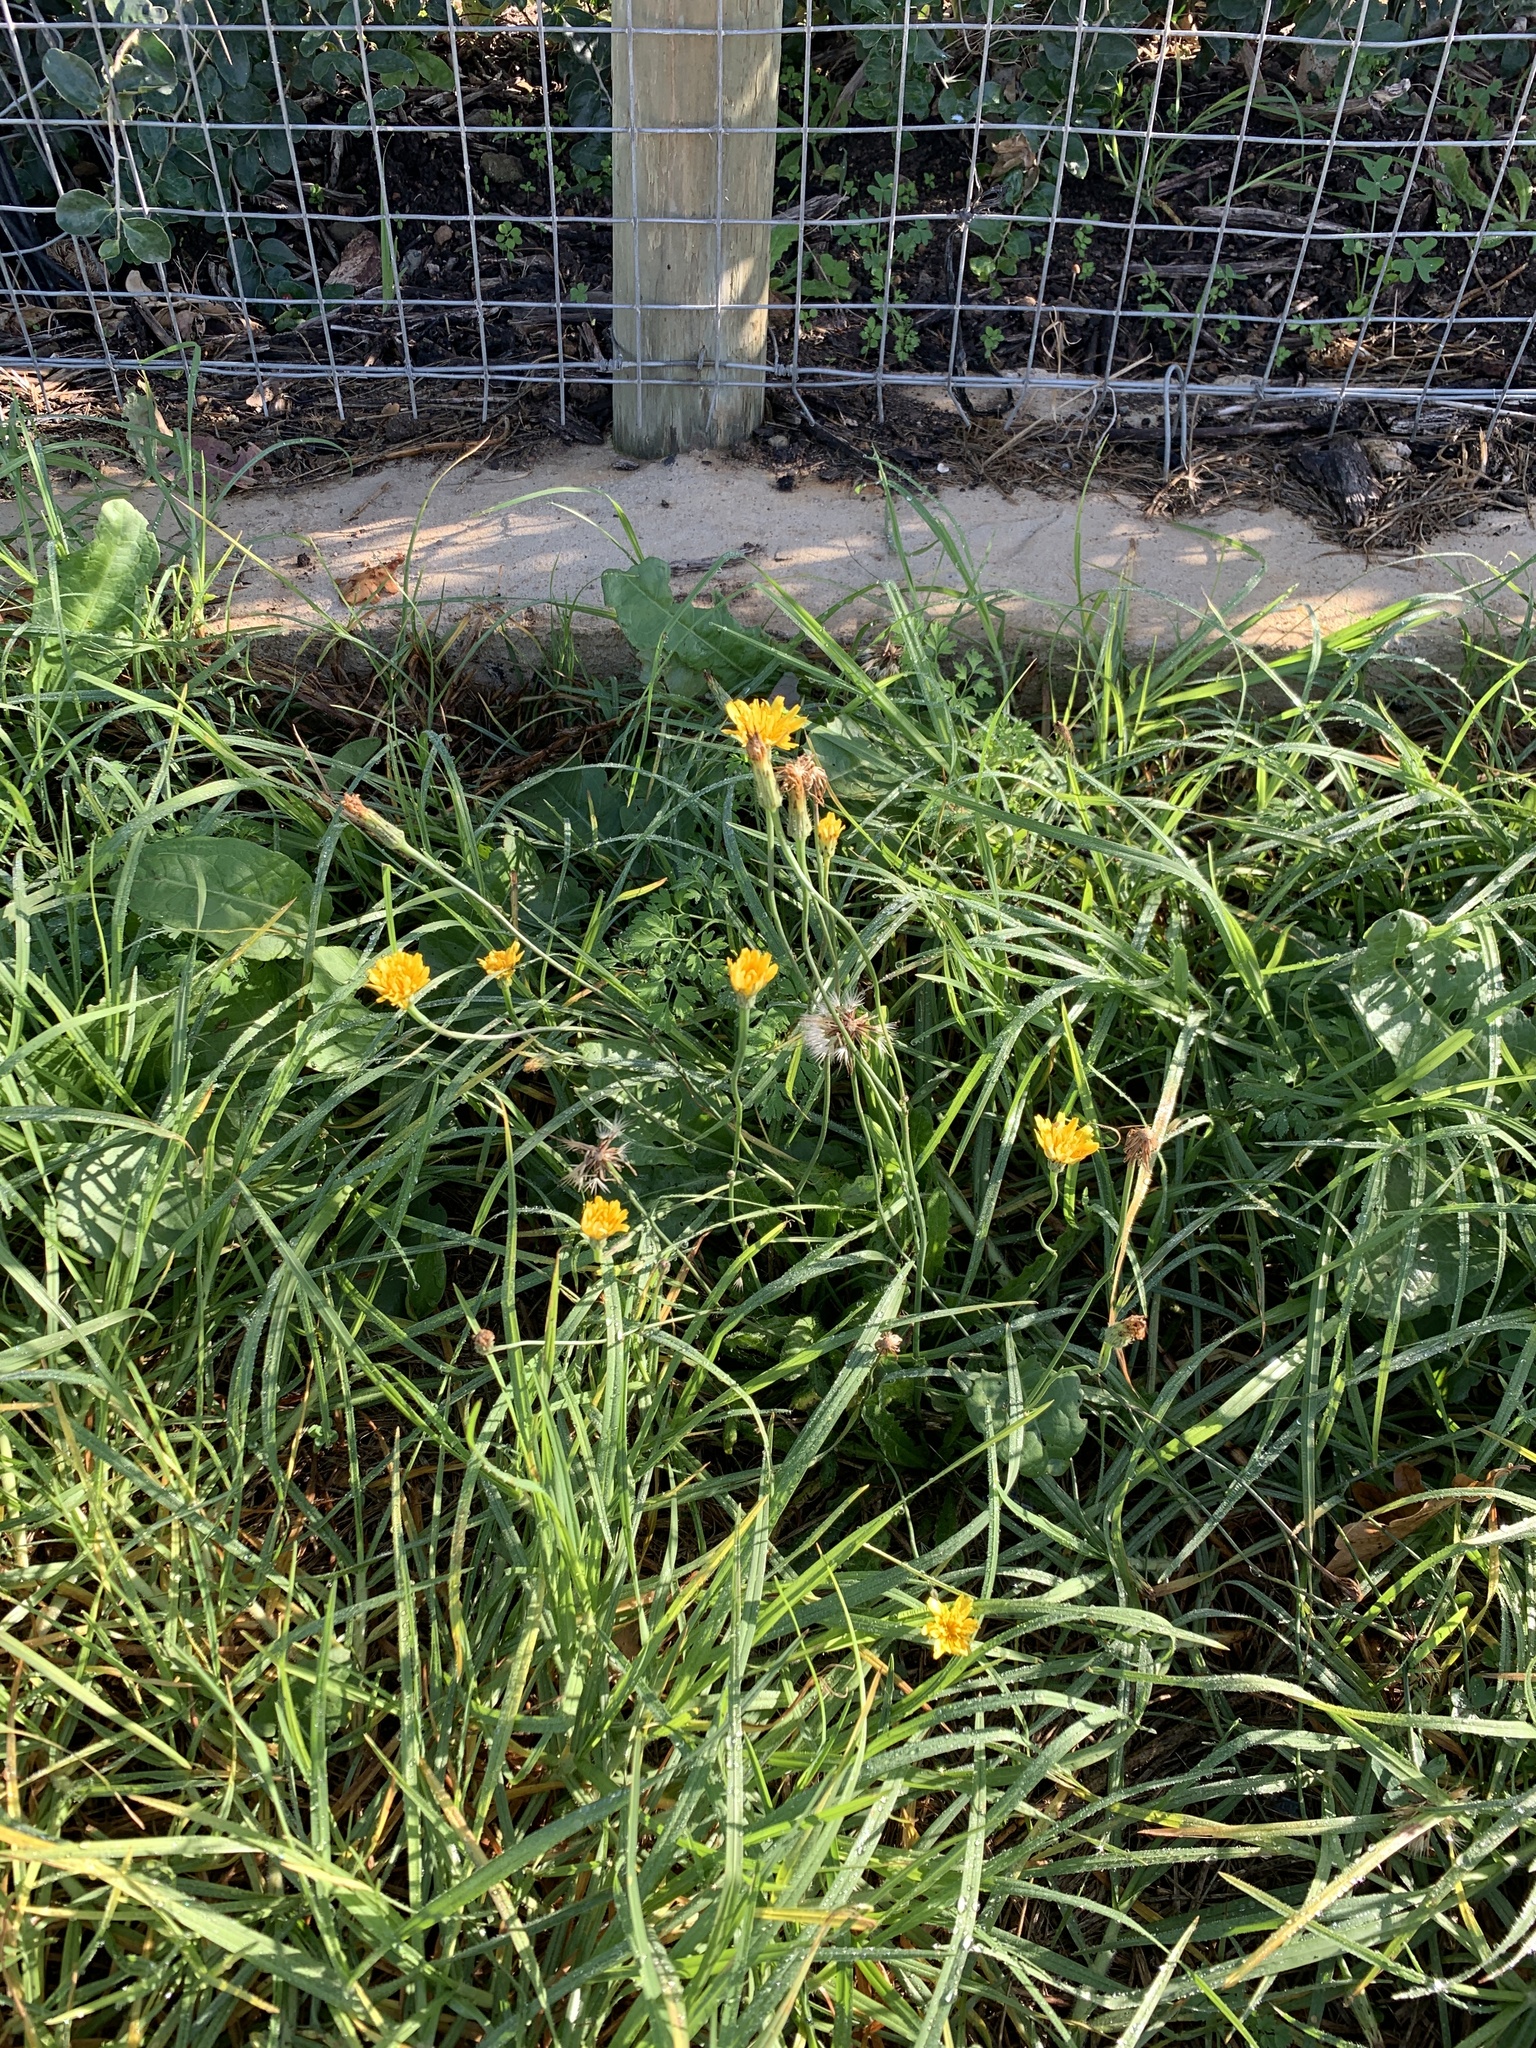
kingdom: Plantae
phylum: Tracheophyta
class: Magnoliopsida
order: Asterales
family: Asteraceae
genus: Hypochaeris
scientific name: Hypochaeris radicata
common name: Flatweed
